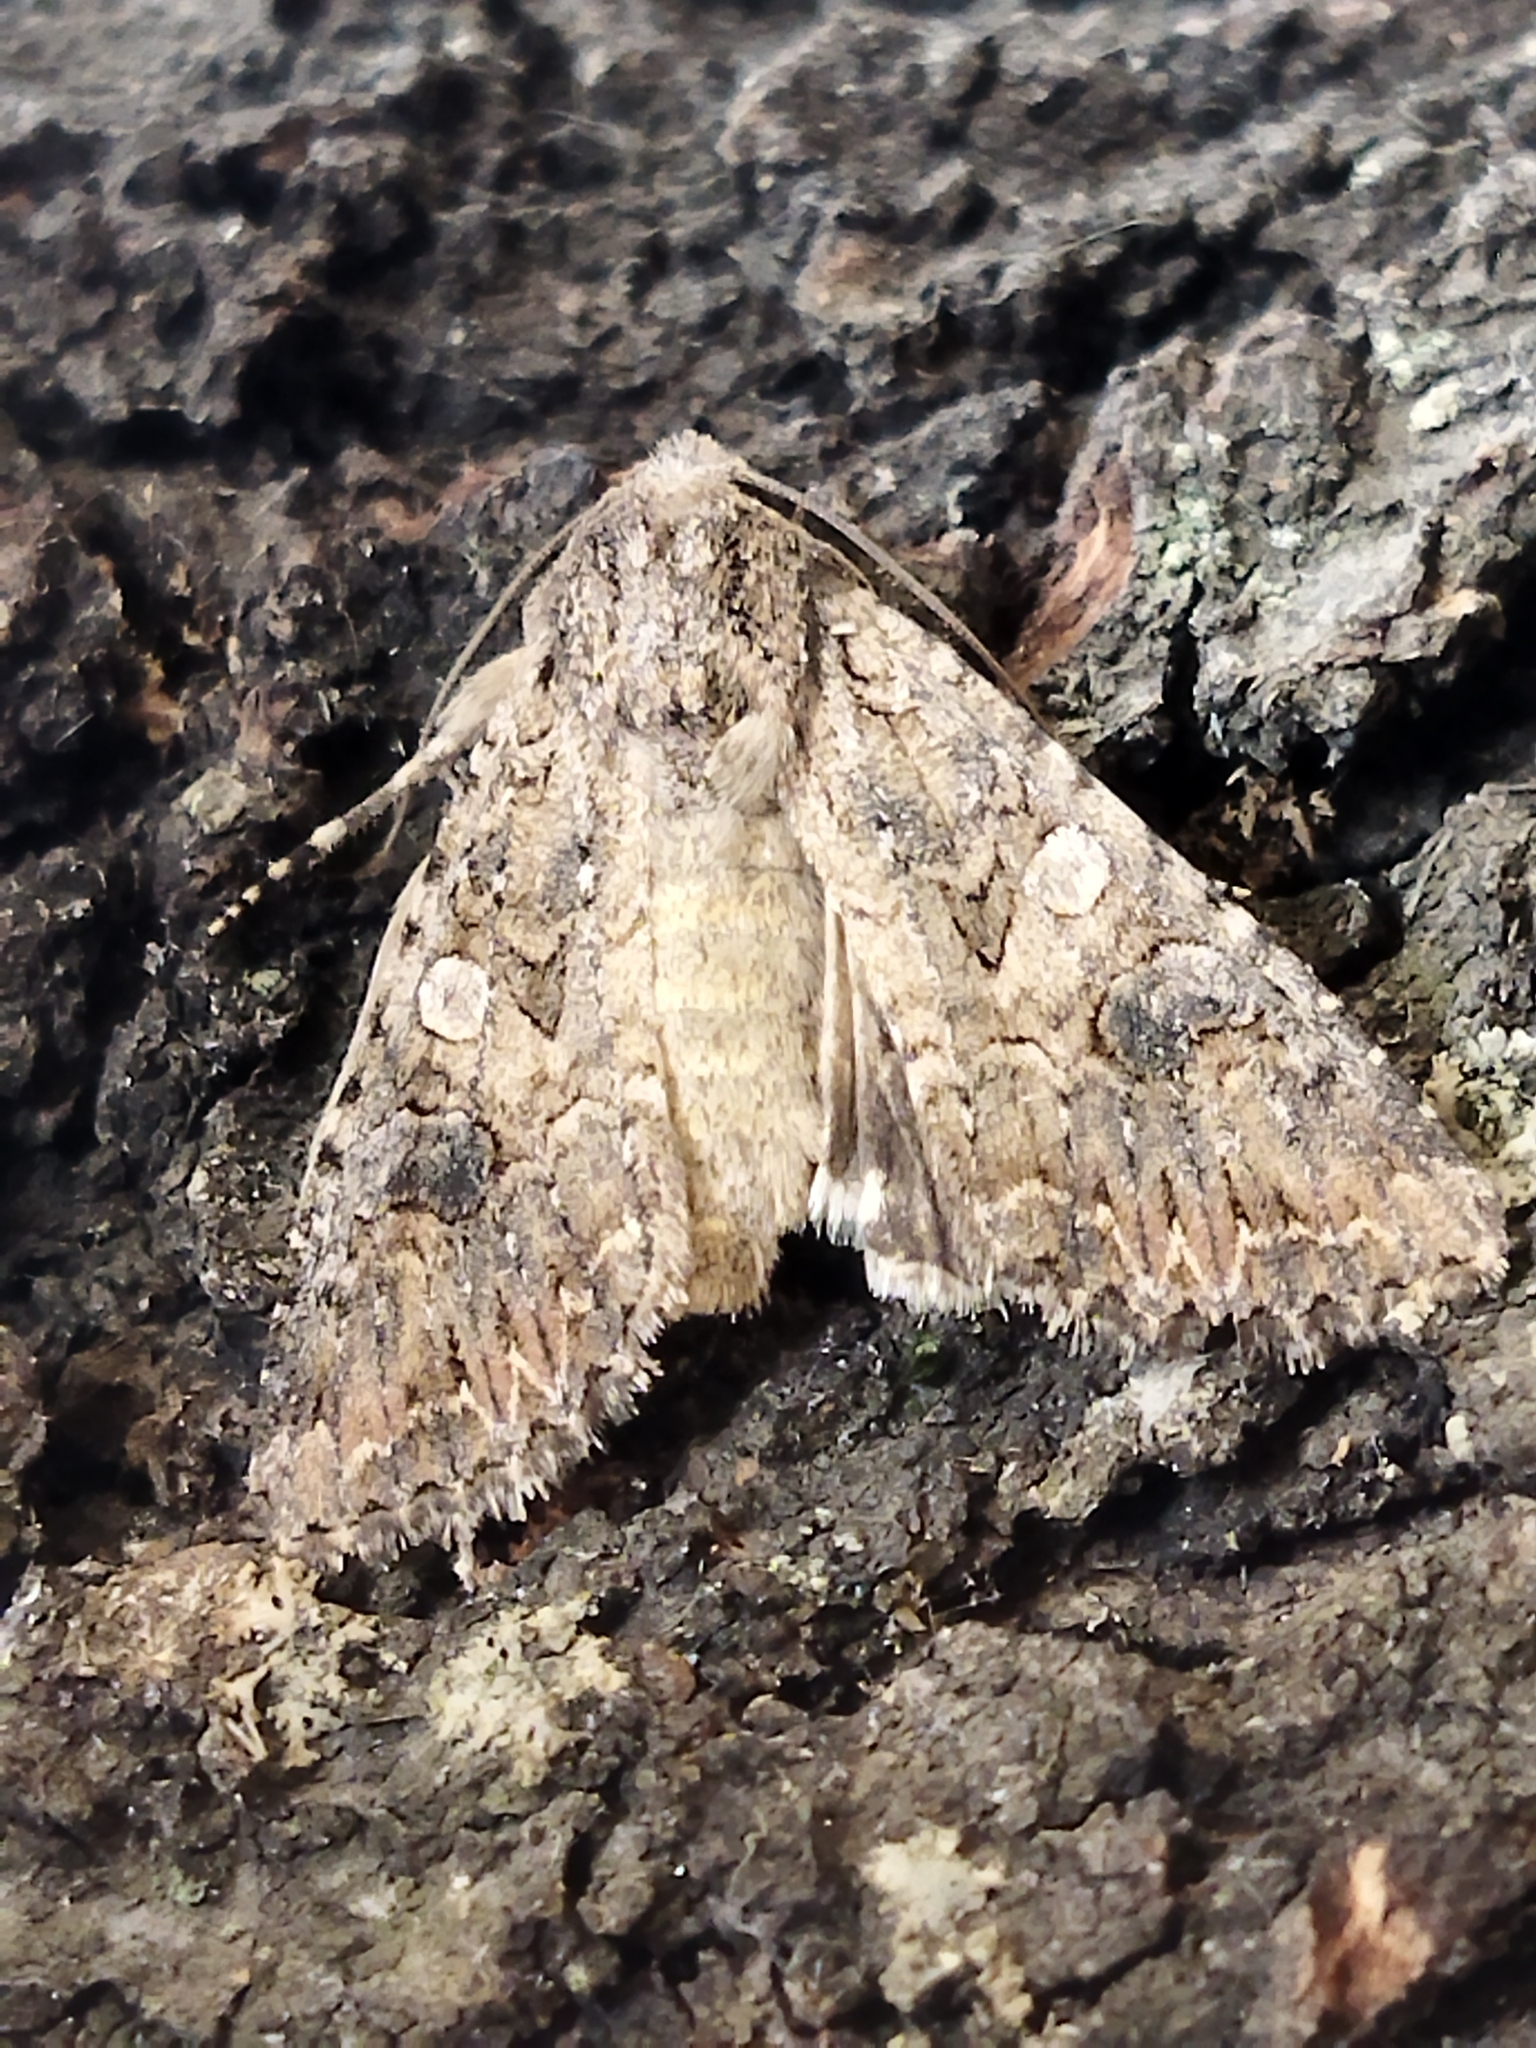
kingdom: Animalia
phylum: Arthropoda
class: Insecta
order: Lepidoptera
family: Noctuidae
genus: Anarta
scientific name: Anarta trifolii
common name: Clover cutworm moth
